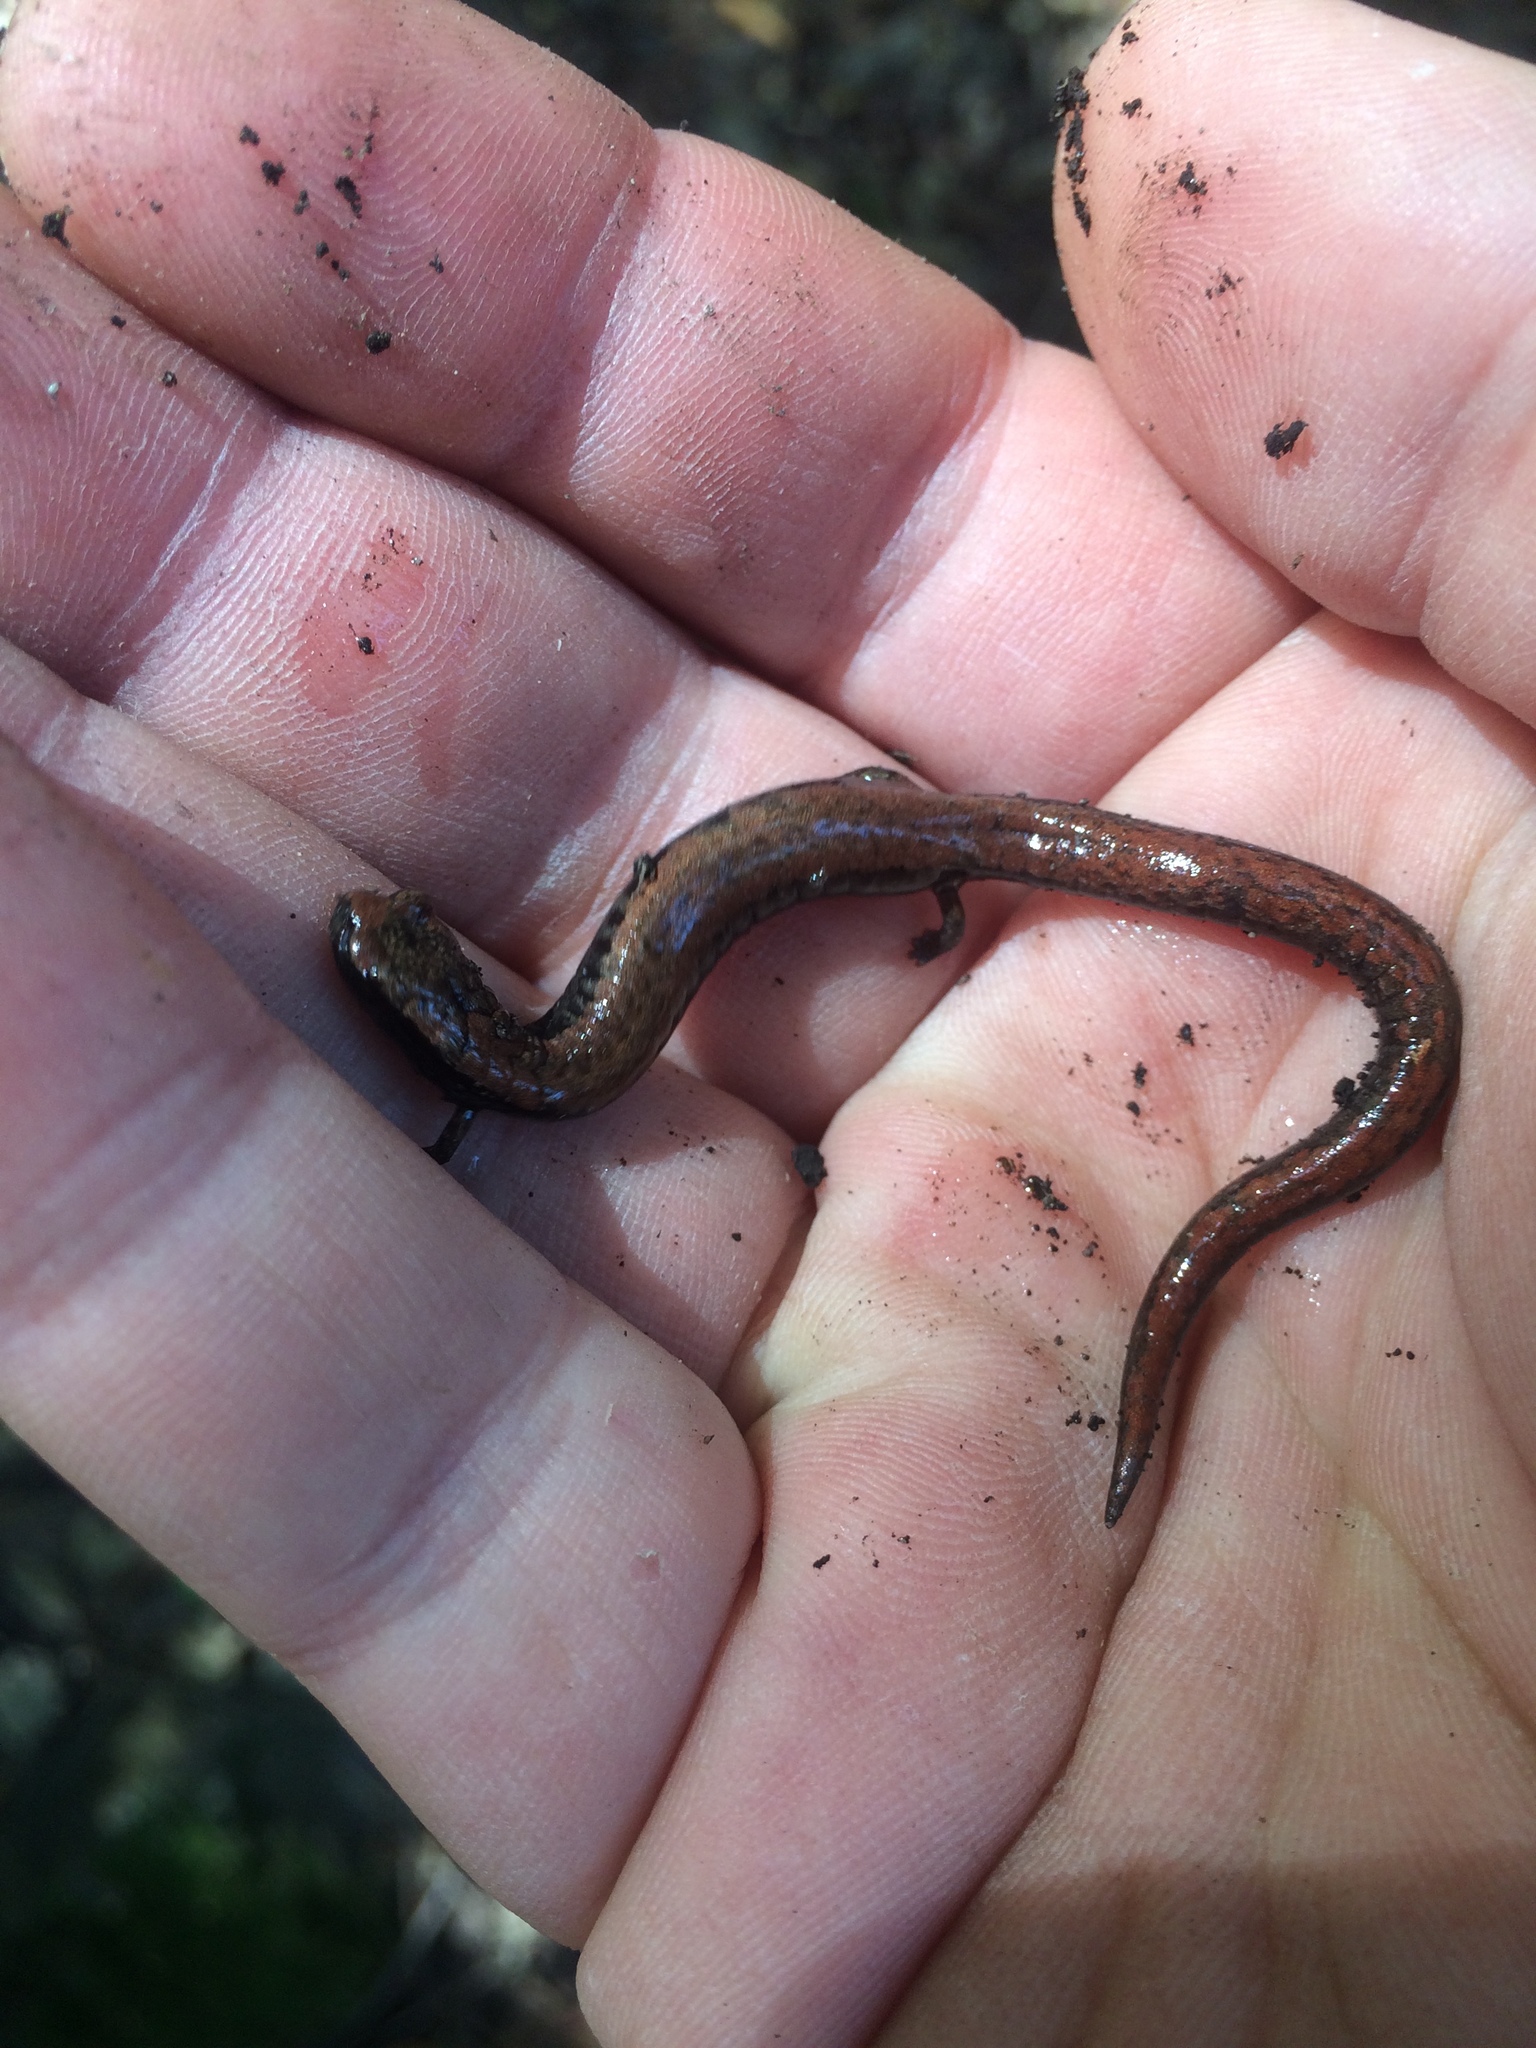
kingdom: Animalia
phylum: Chordata
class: Amphibia
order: Caudata
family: Plethodontidae
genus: Batrachoseps
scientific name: Batrachoseps attenuatus
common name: California slender salamander
